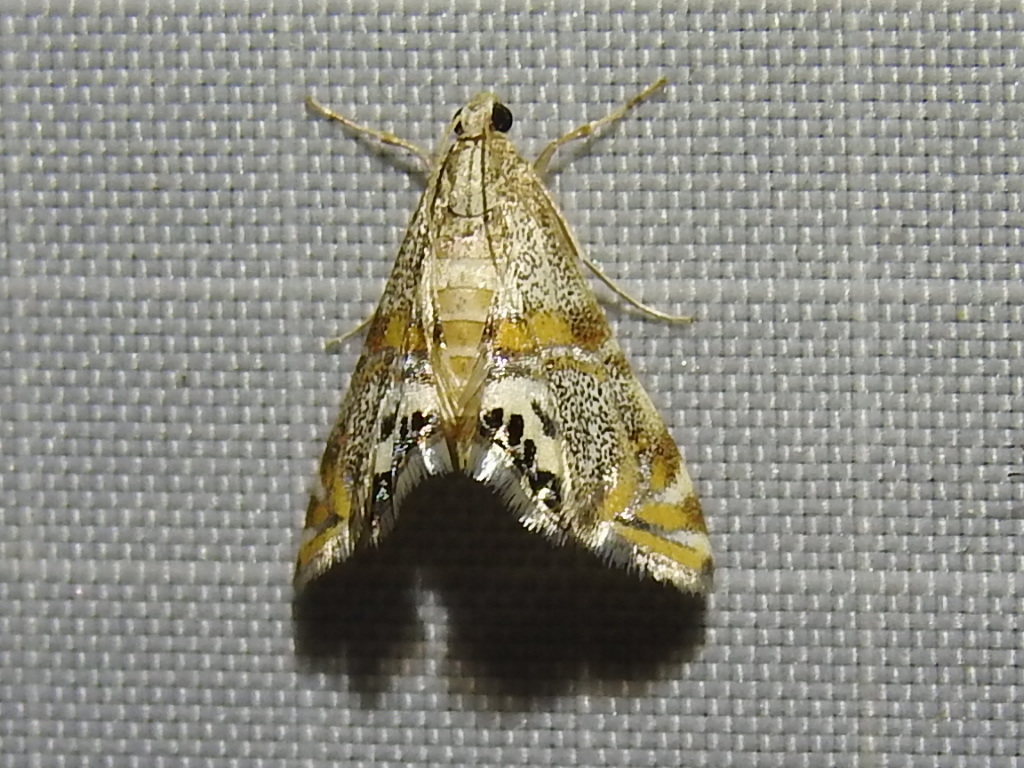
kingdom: Animalia
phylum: Arthropoda
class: Insecta
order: Lepidoptera
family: Crambidae
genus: Petrophila
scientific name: Petrophila bifascialis
